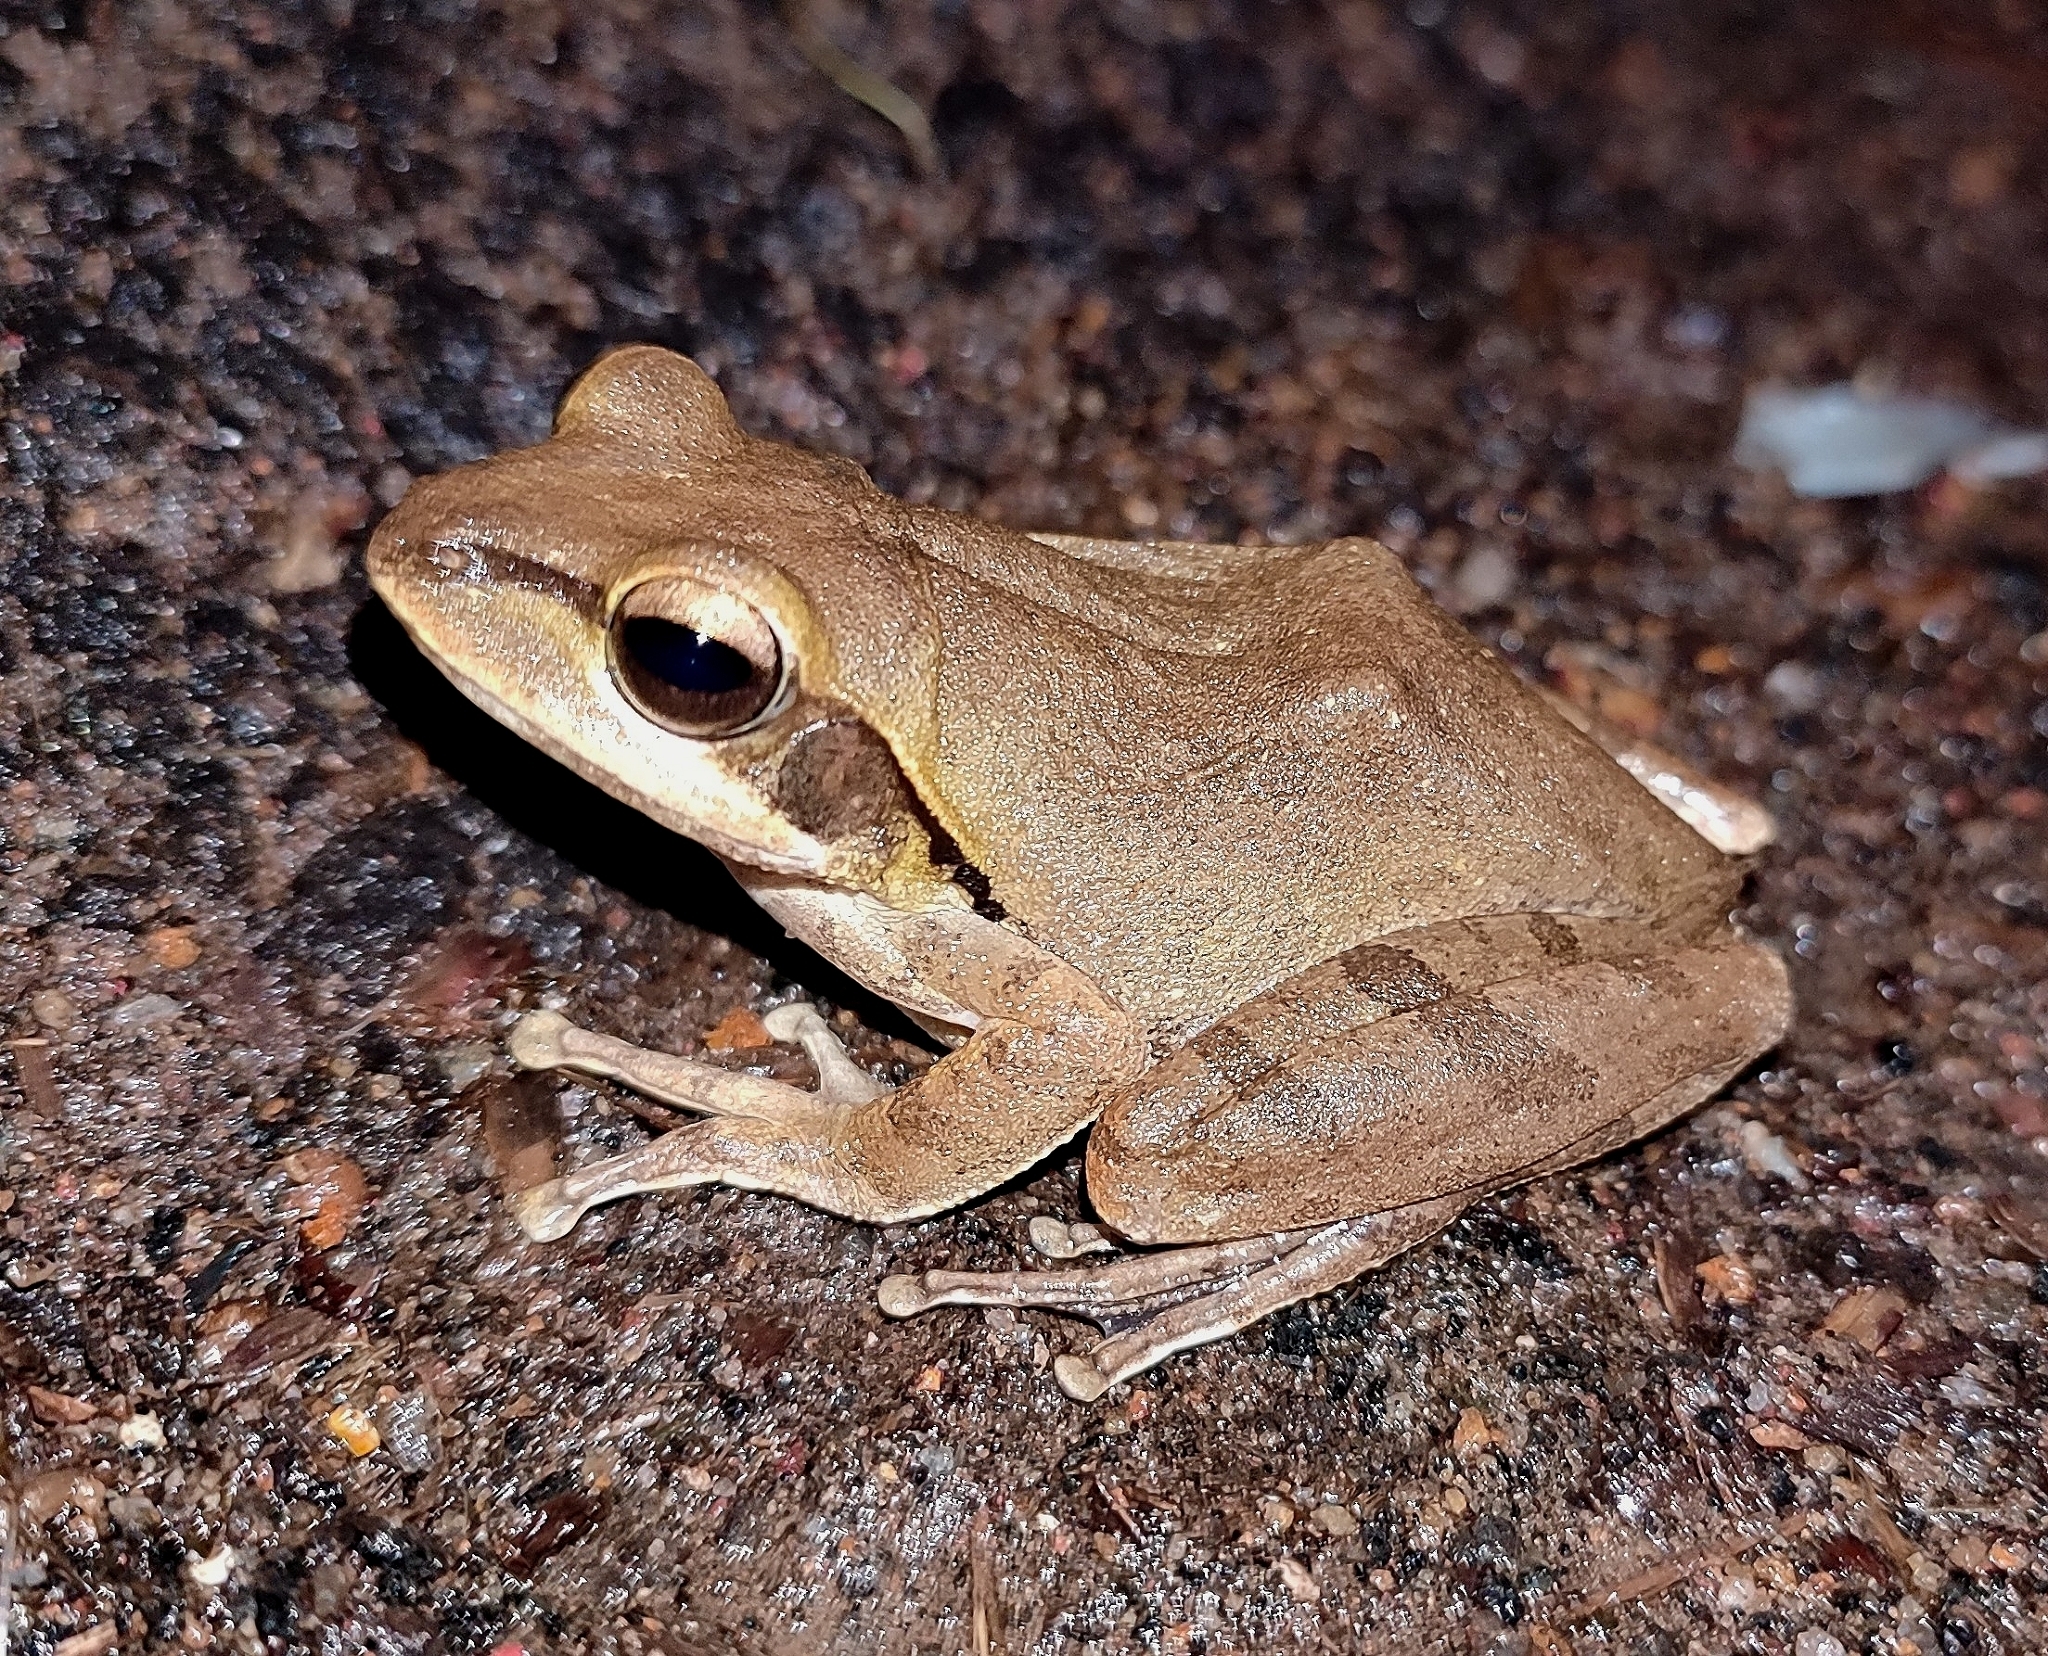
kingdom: Animalia
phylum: Chordata
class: Amphibia
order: Anura
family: Rhacophoridae
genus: Polypedates
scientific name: Polypedates maculatus
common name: Himalayan tree frog
